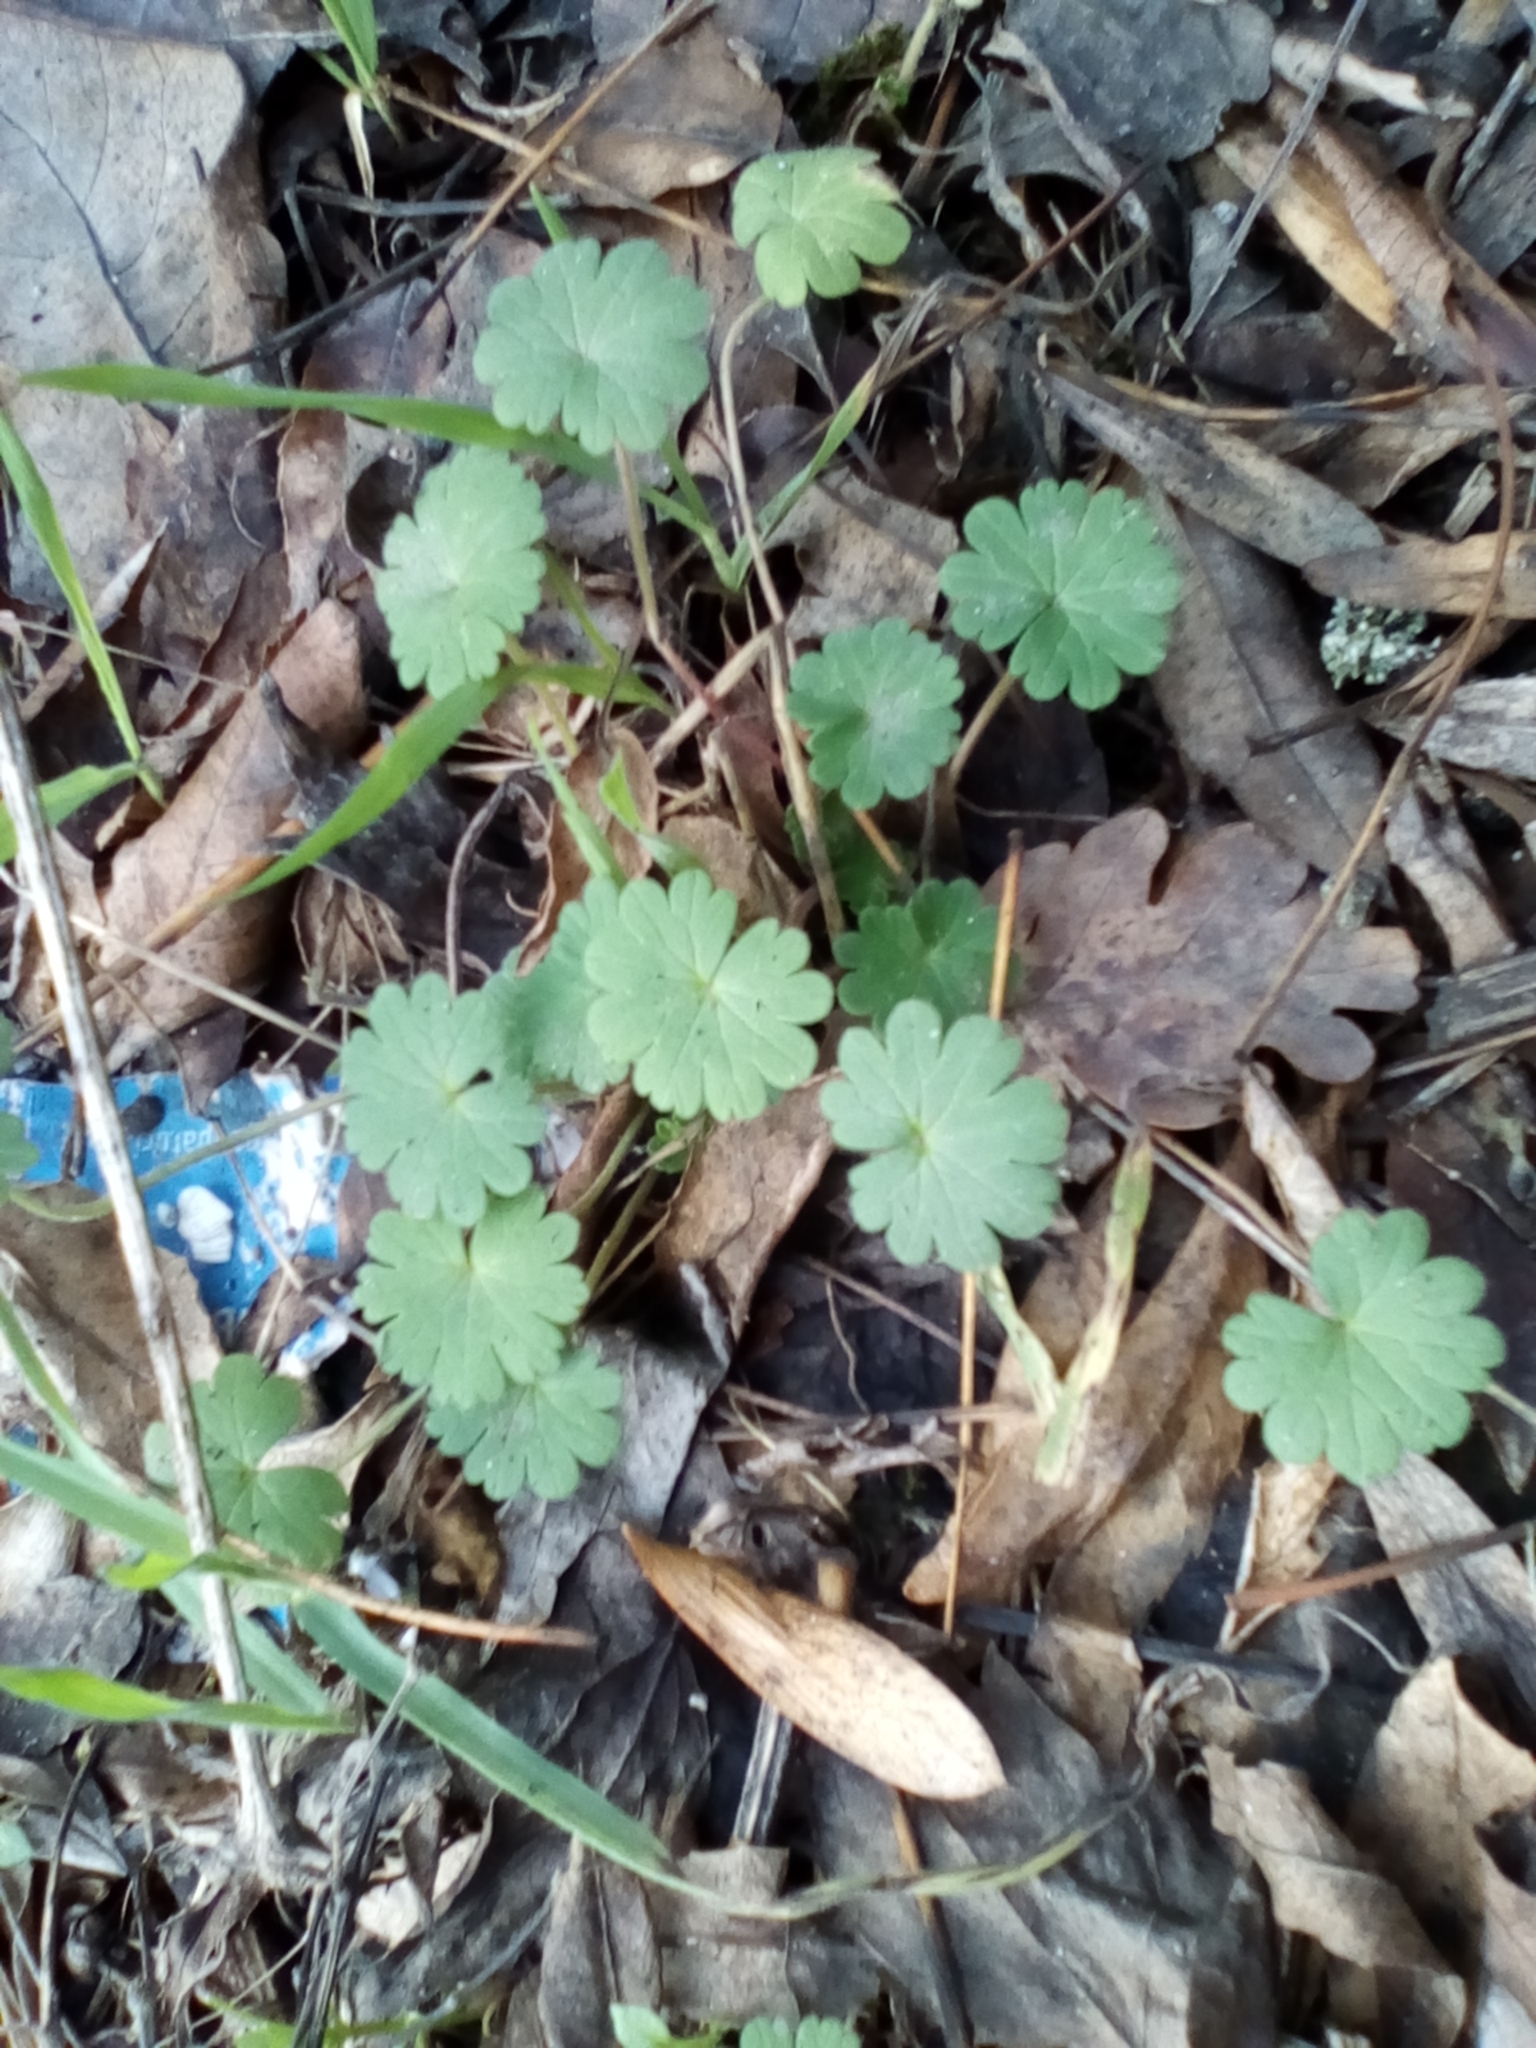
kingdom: Plantae
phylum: Tracheophyta
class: Magnoliopsida
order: Geraniales
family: Geraniaceae
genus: Geranium
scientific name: Geranium rotundifolium
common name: Round-leaved crane's-bill
